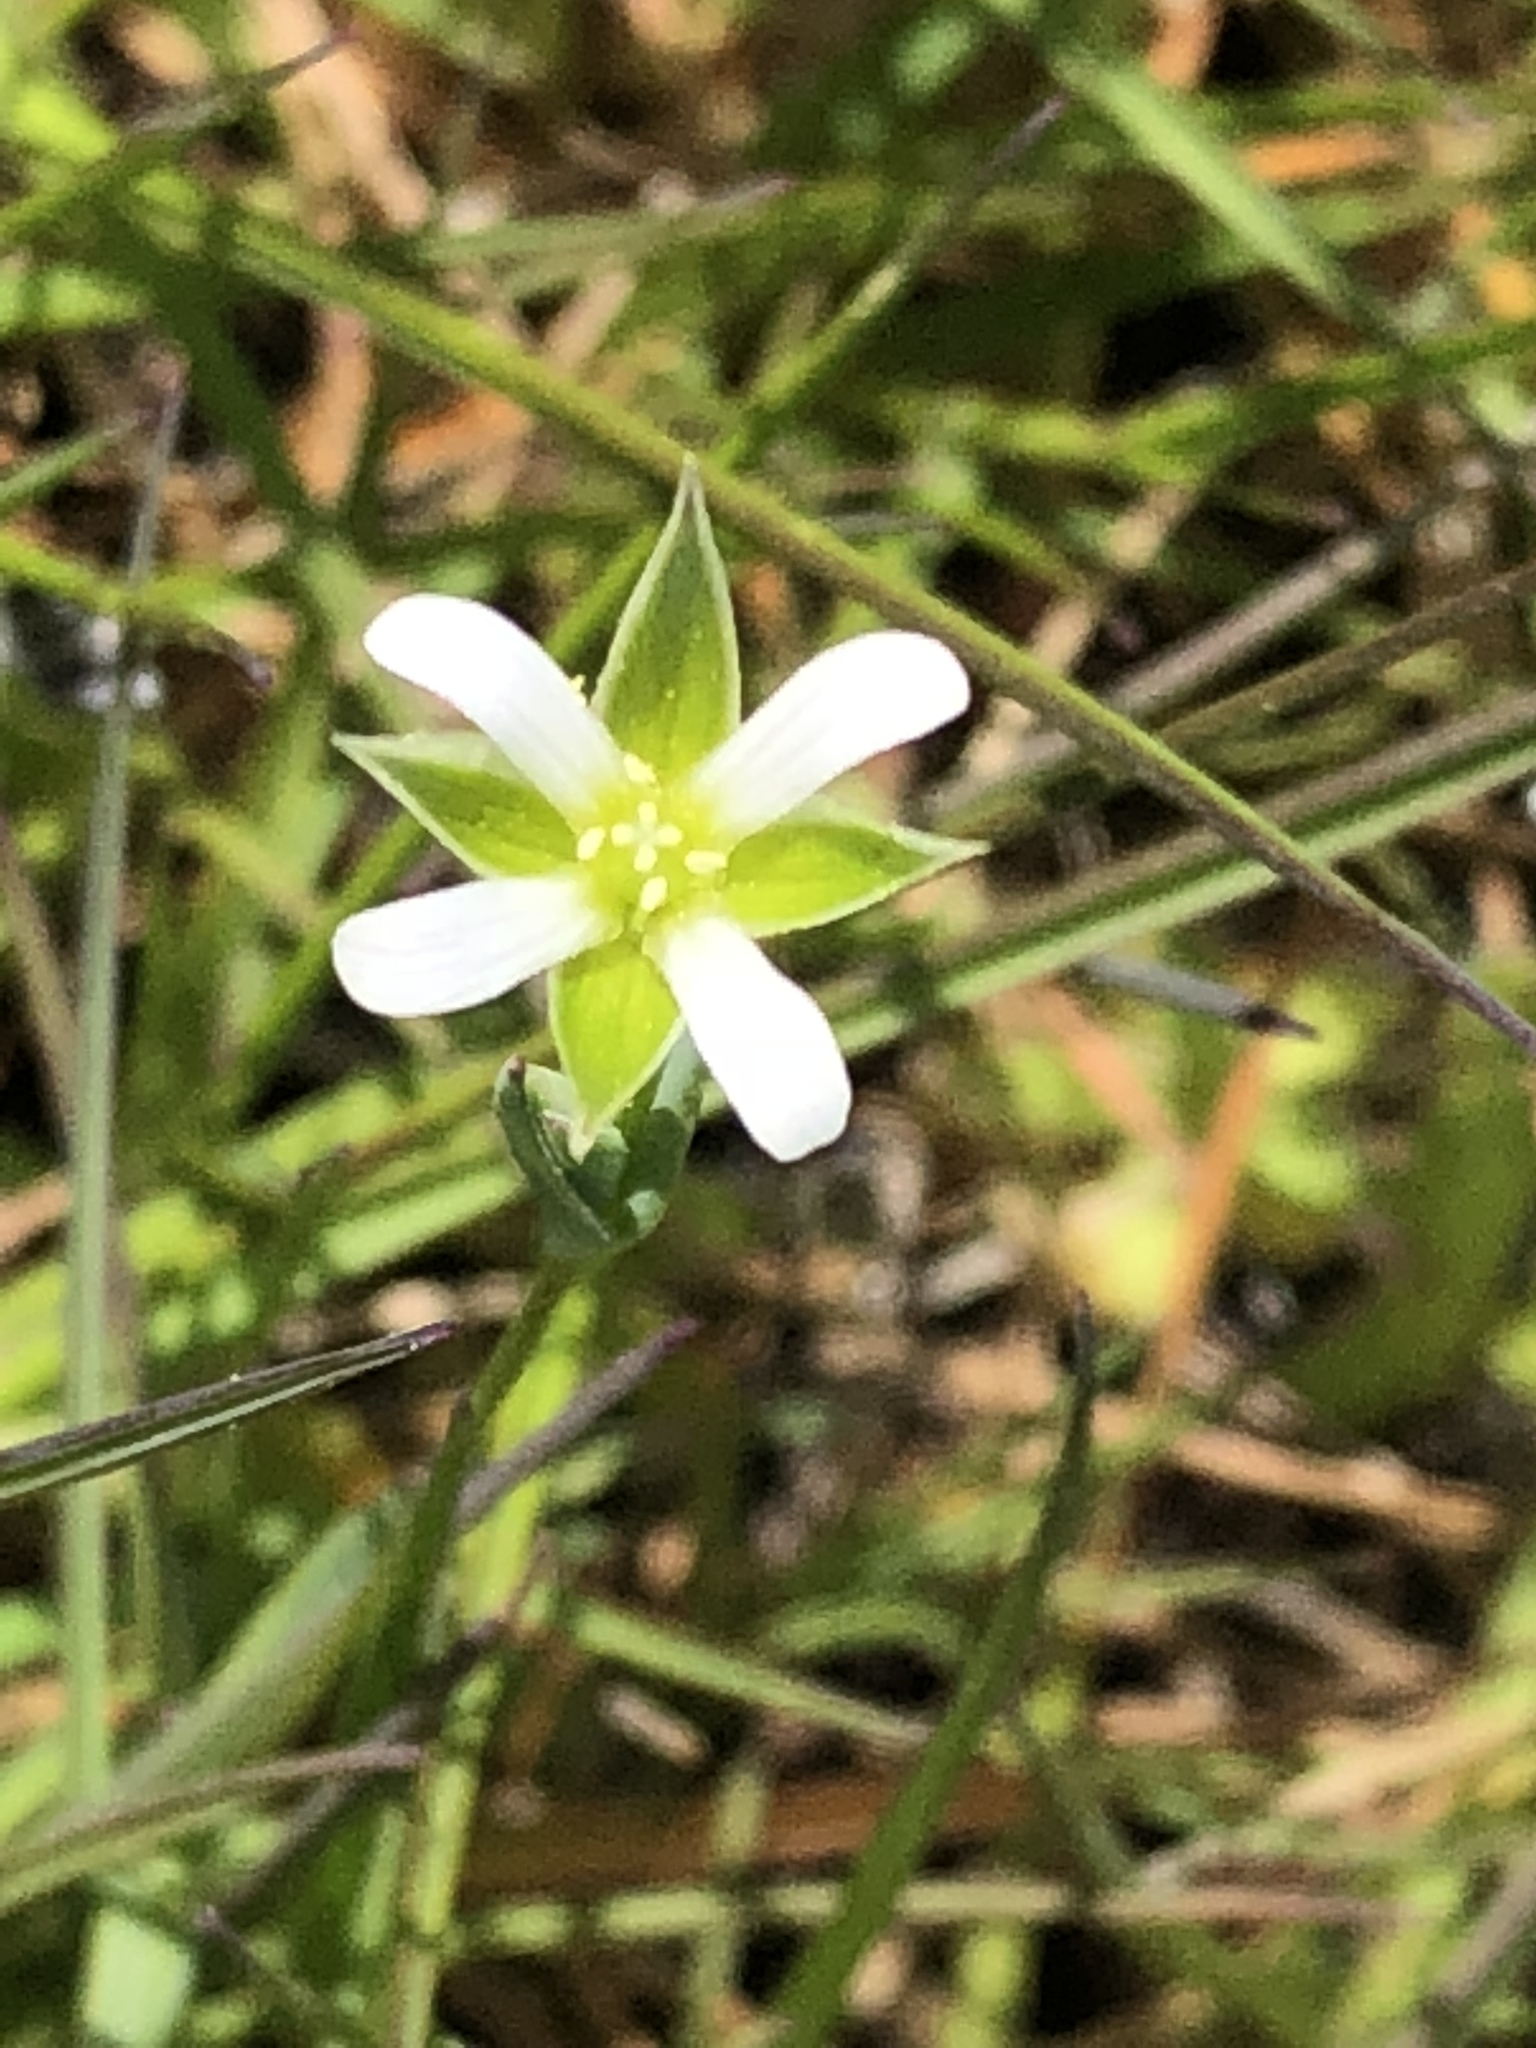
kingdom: Plantae
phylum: Tracheophyta
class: Magnoliopsida
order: Caryophyllales
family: Caryophyllaceae
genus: Moenchia
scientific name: Moenchia erecta
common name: Upright chickweed
